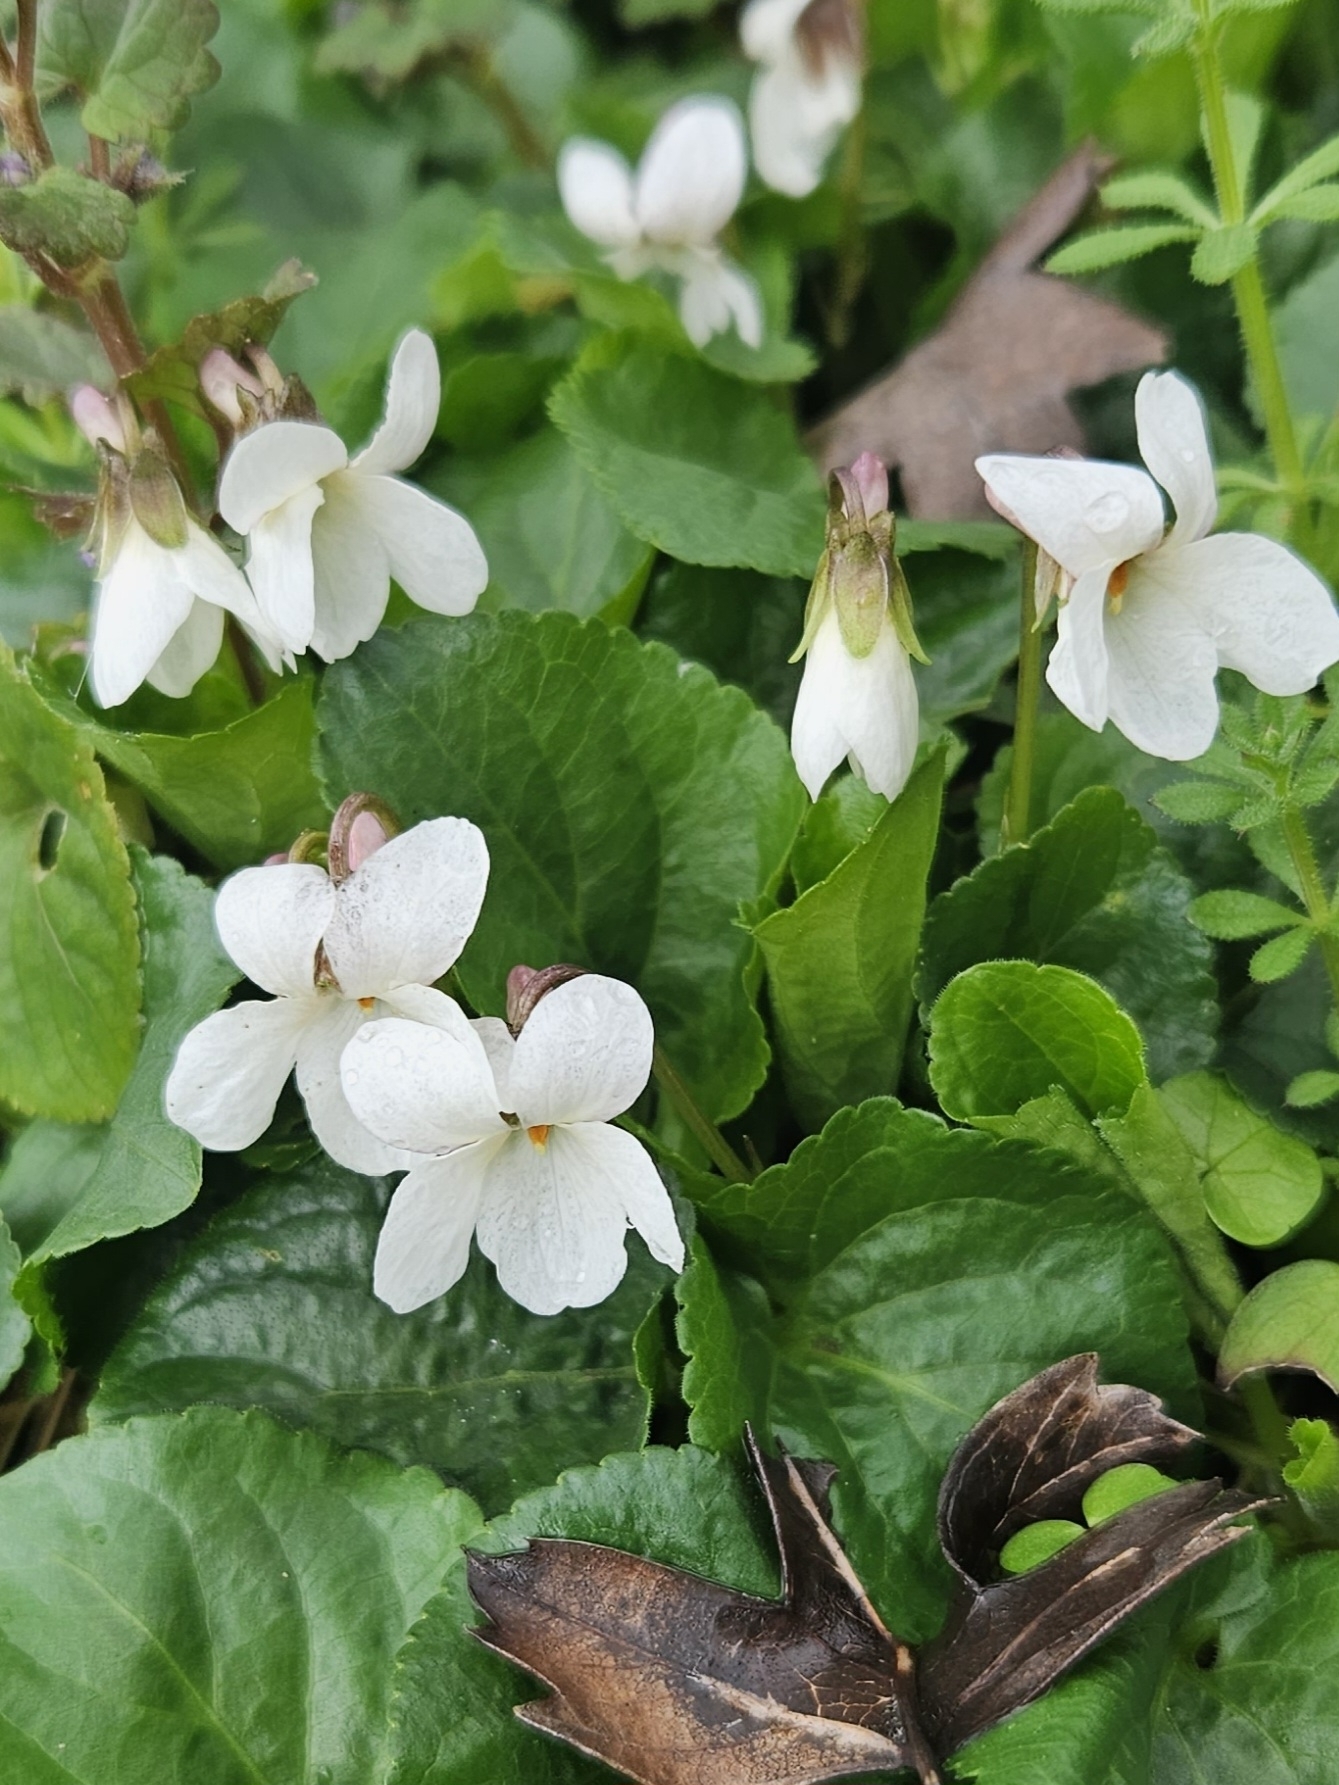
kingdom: Plantae
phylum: Tracheophyta
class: Magnoliopsida
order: Malpighiales
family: Violaceae
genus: Viola
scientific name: Viola odorata
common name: Sweet violet
